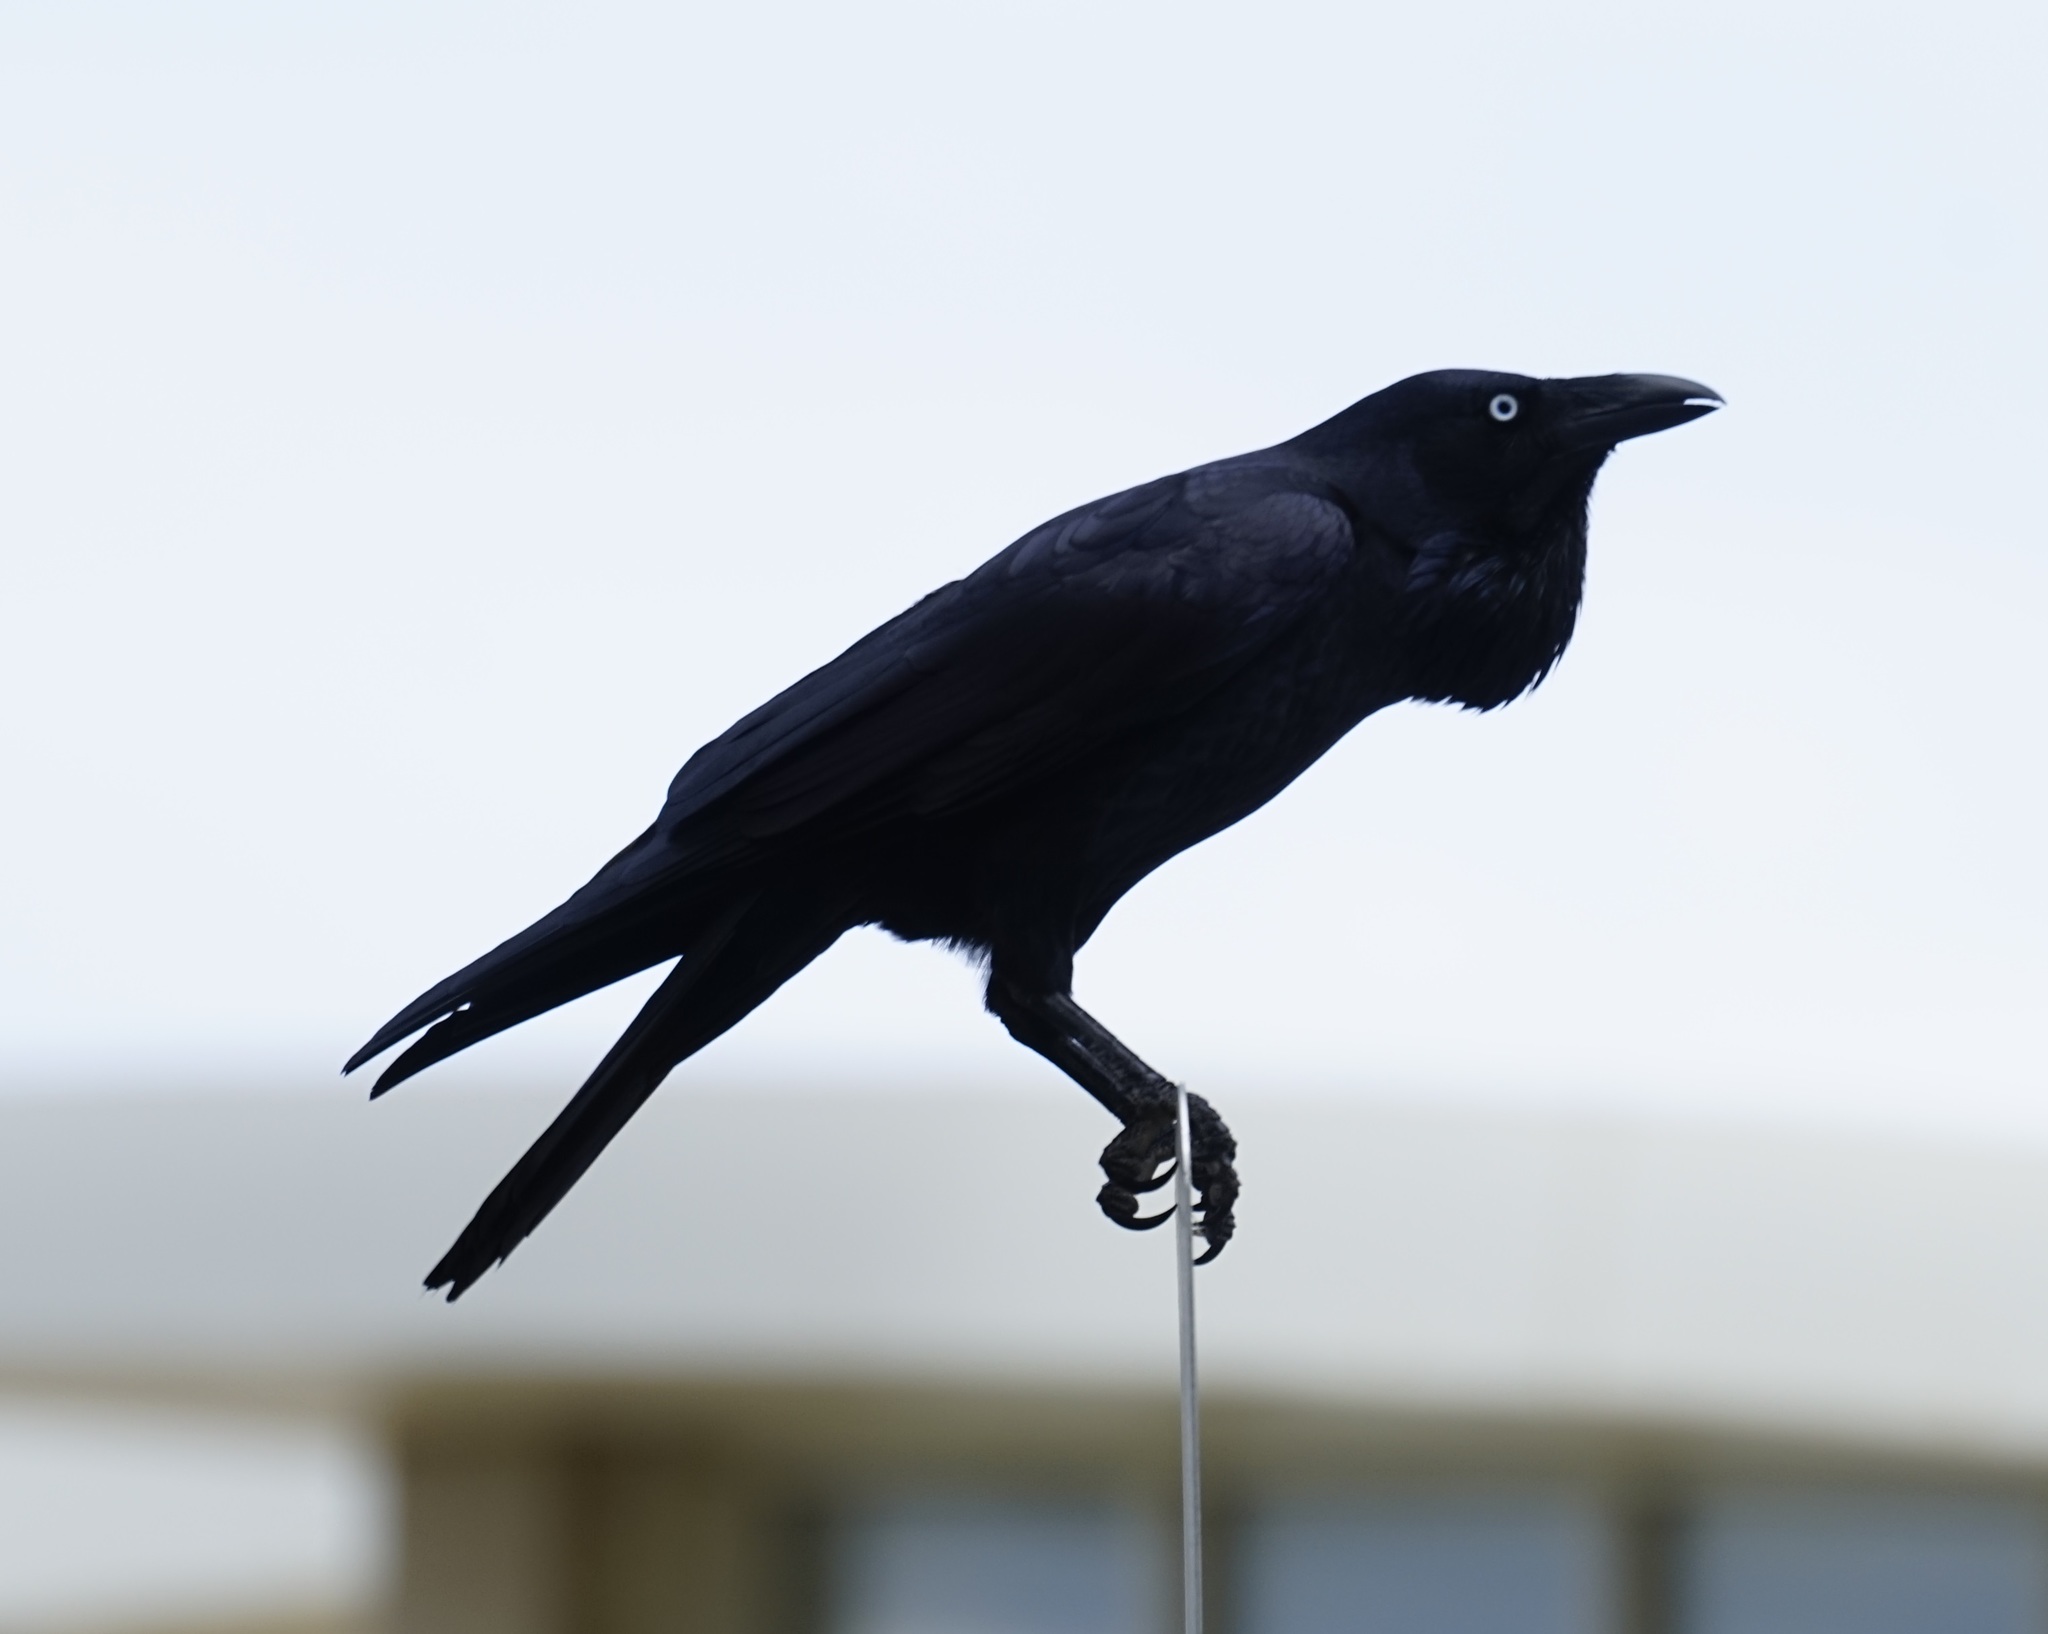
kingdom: Animalia
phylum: Chordata
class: Aves
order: Passeriformes
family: Corvidae
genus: Corvus
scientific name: Corvus coronoides
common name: Australian raven
